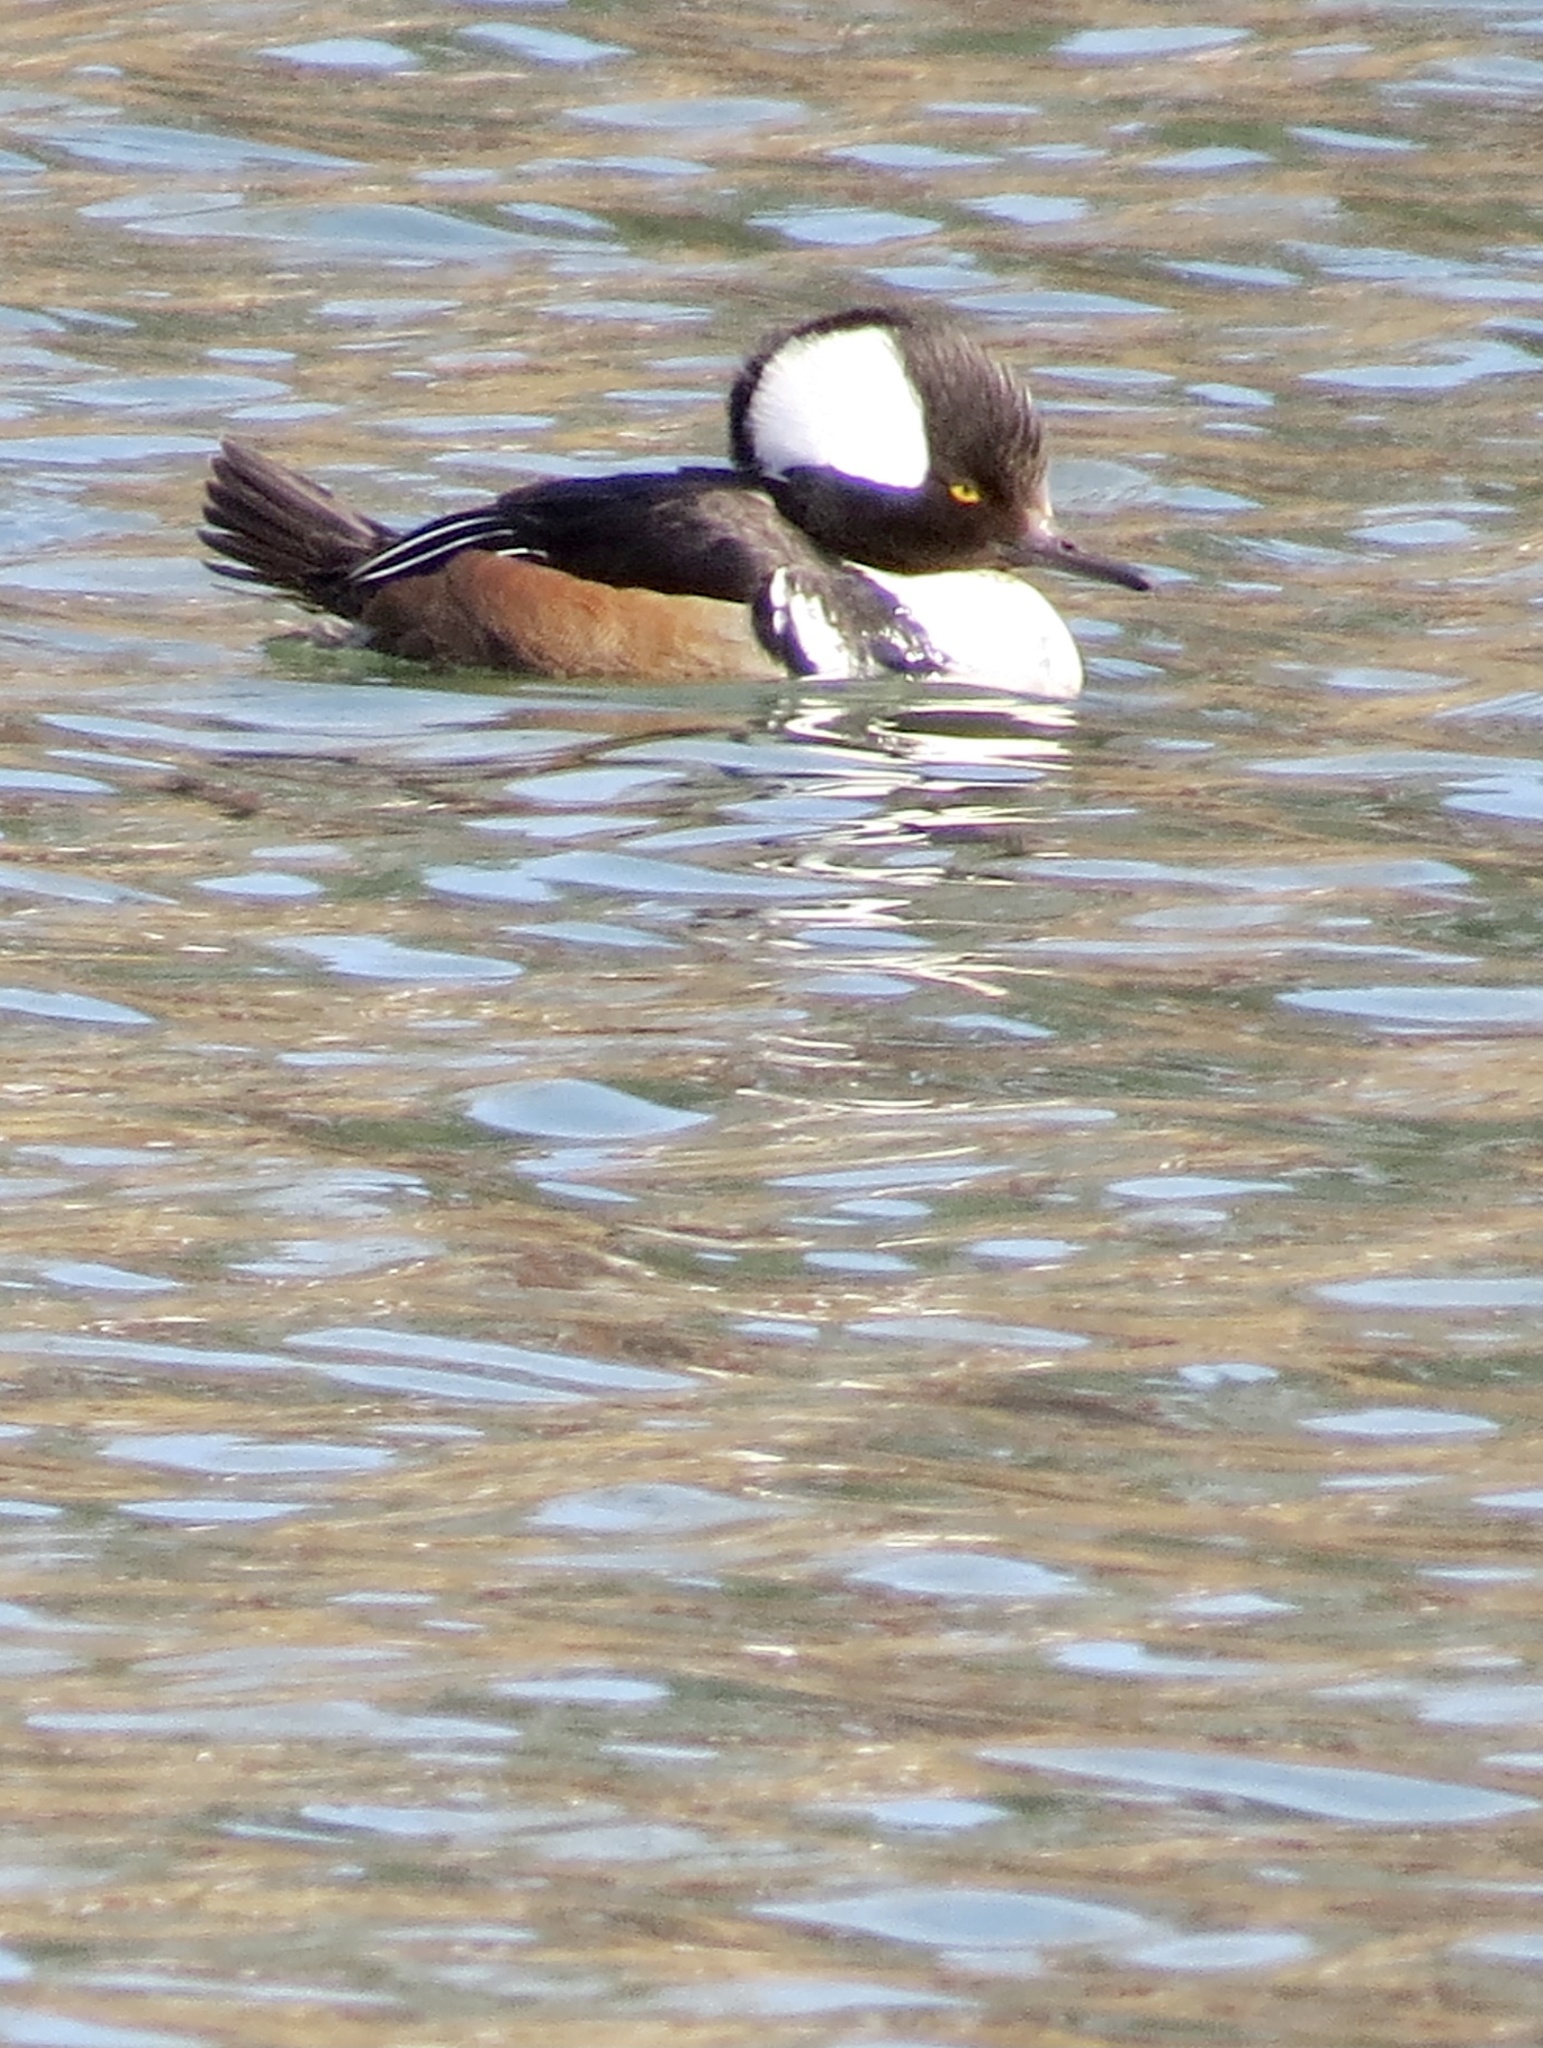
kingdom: Animalia
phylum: Chordata
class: Aves
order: Anseriformes
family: Anatidae
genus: Lophodytes
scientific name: Lophodytes cucullatus
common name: Hooded merganser
